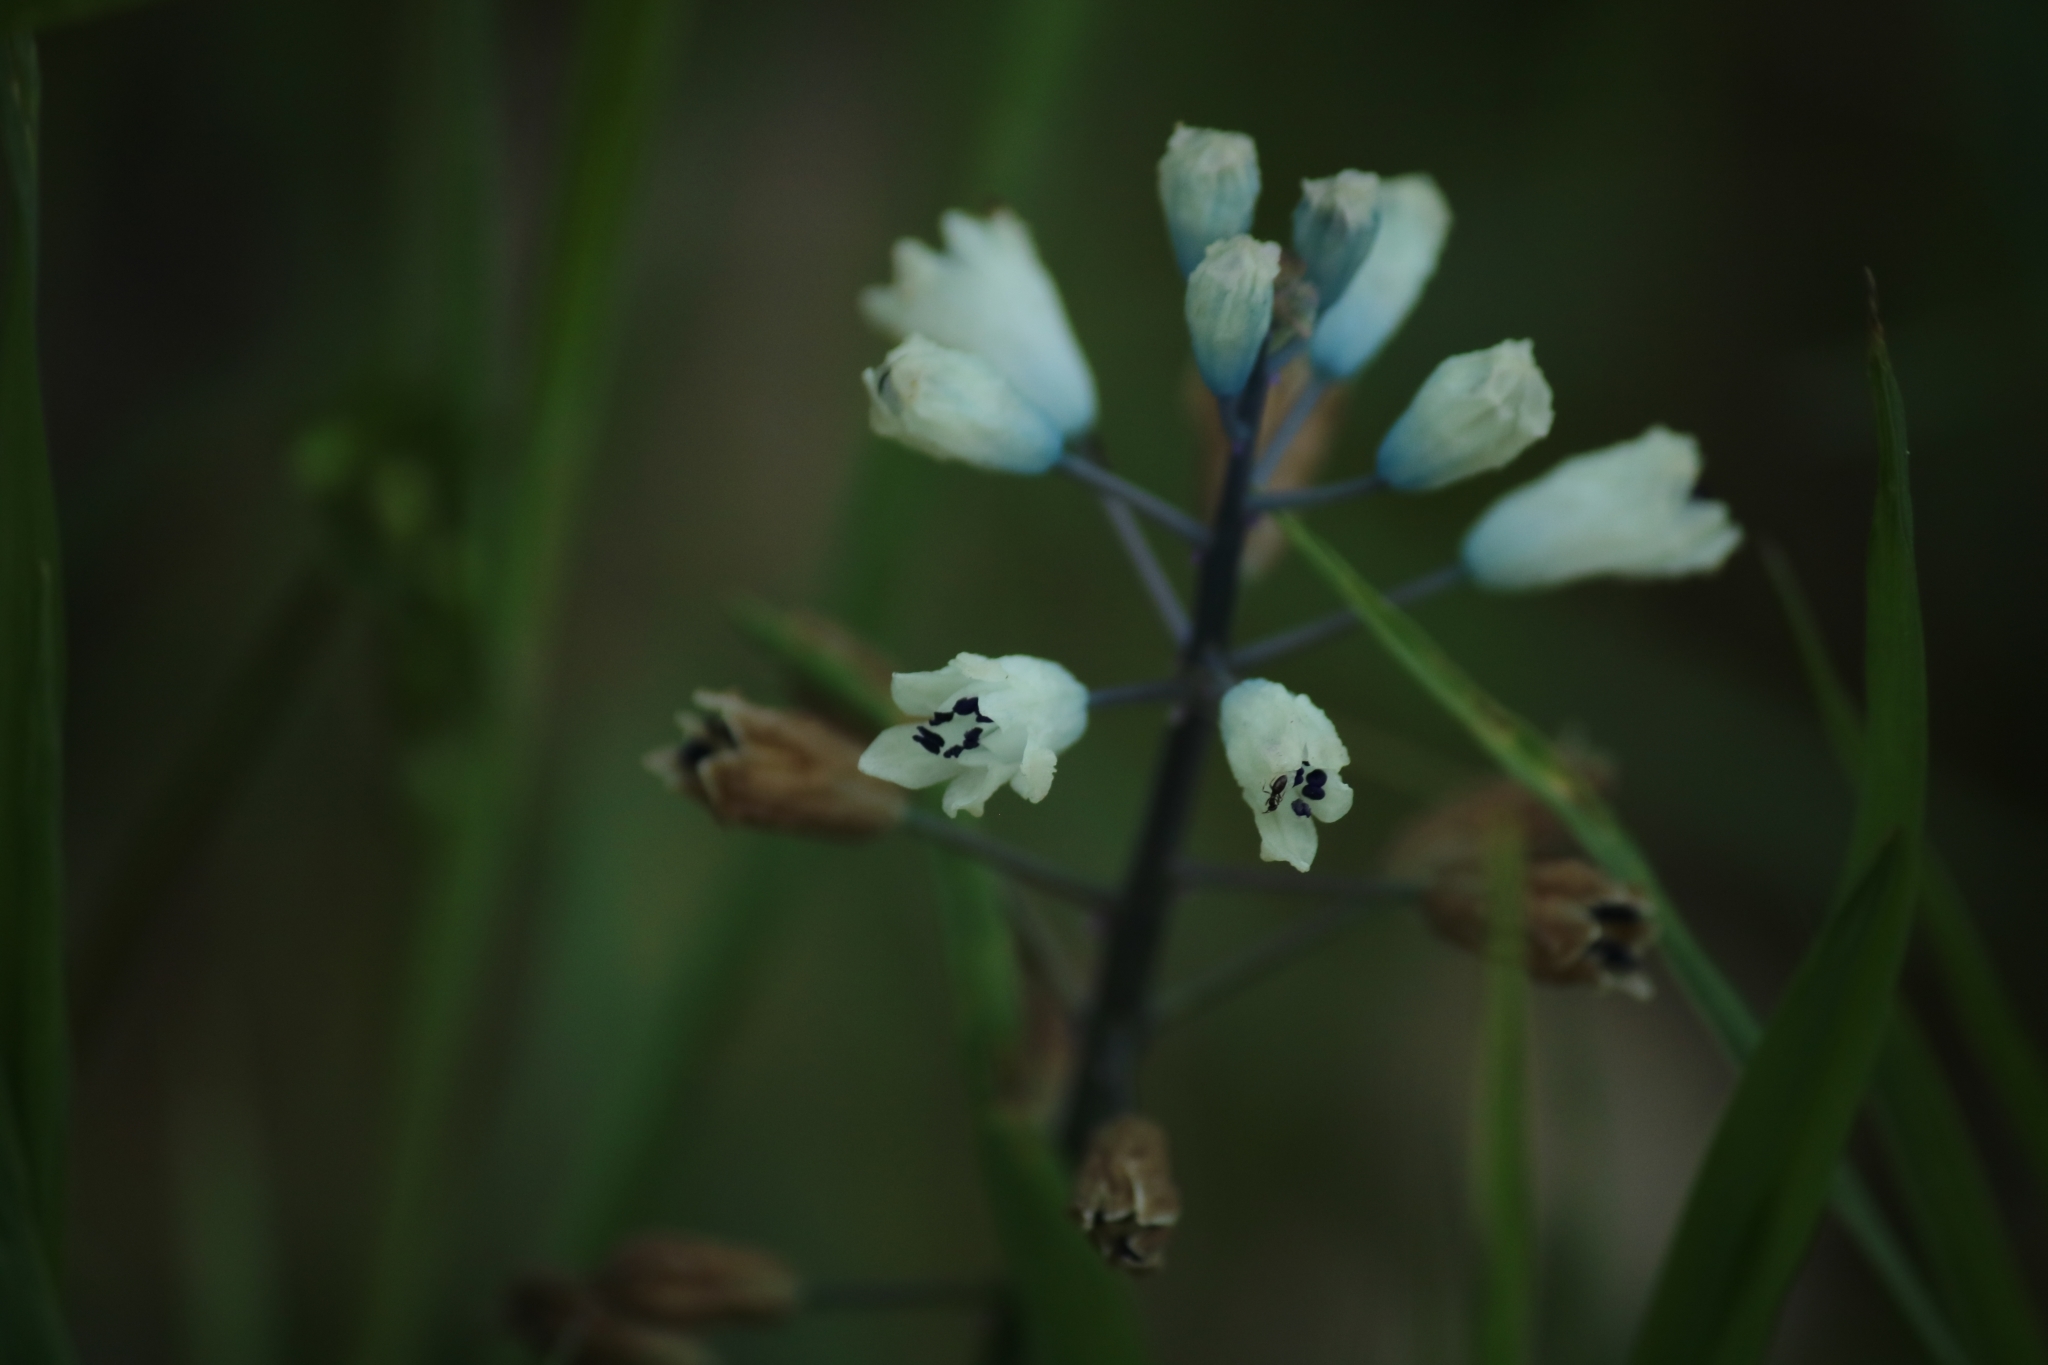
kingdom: Plantae
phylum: Tracheophyta
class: Liliopsida
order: Asparagales
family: Asparagaceae
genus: Bellevalia
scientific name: Bellevalia romana
